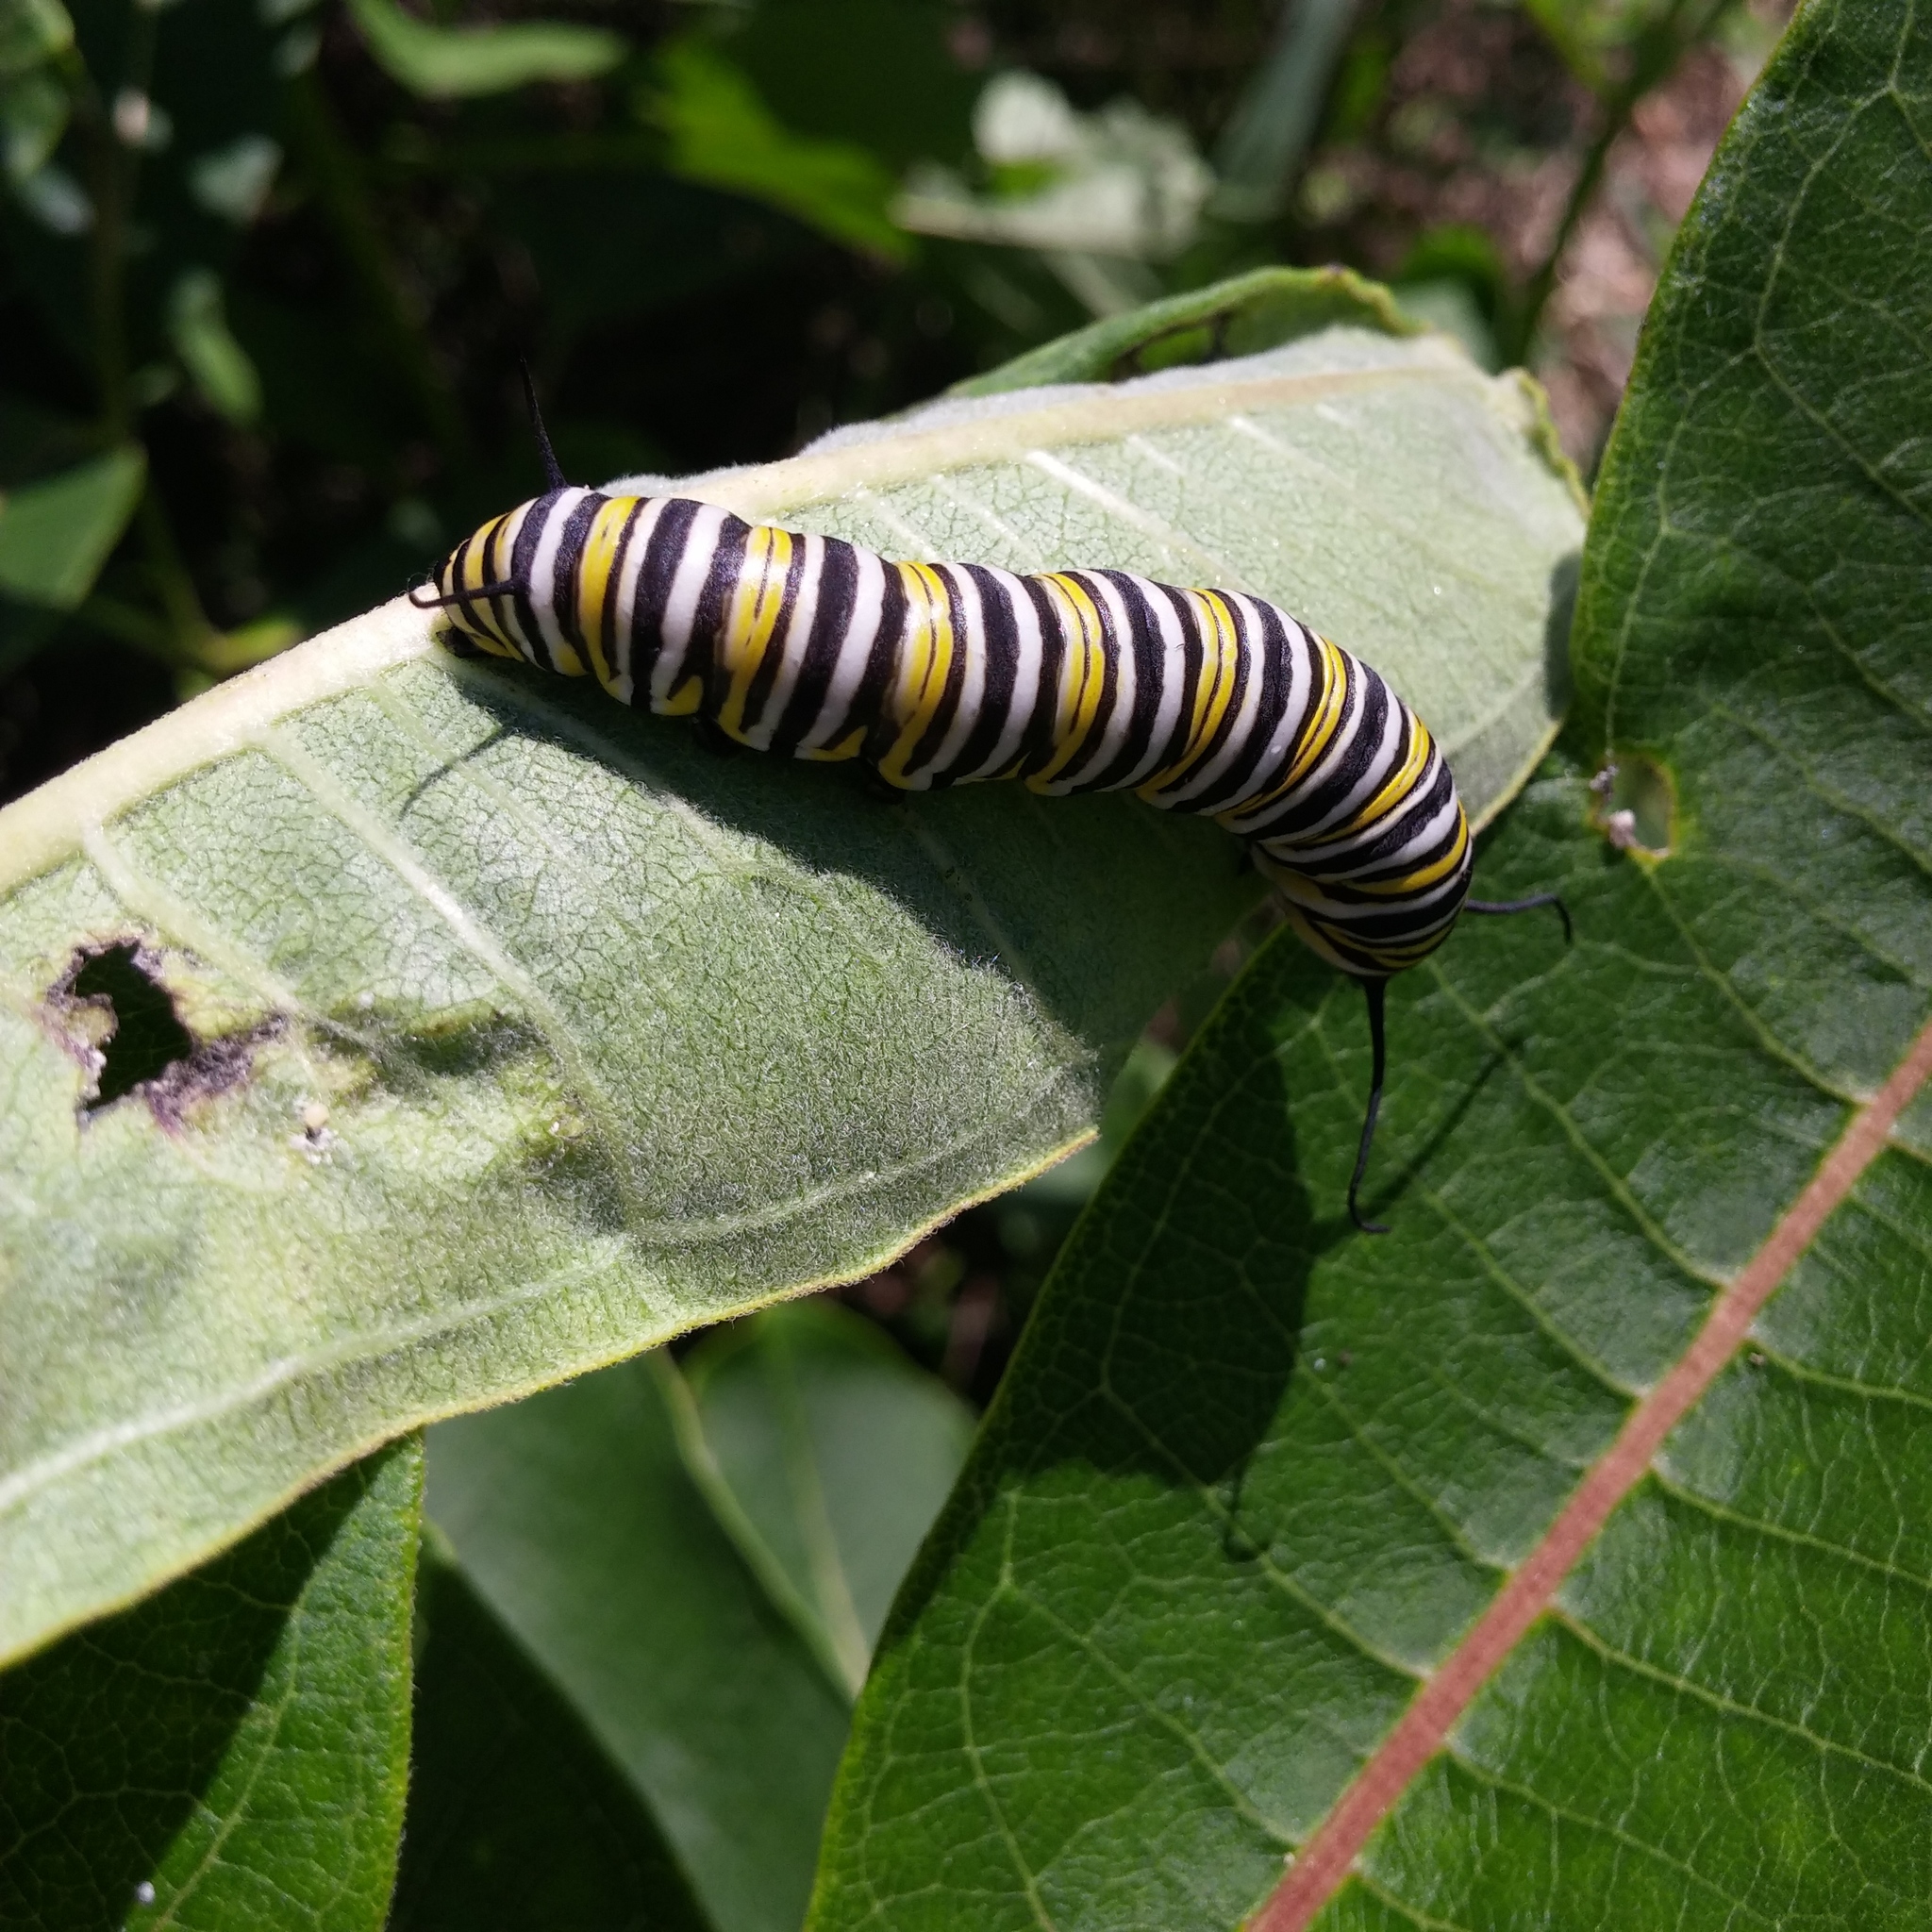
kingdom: Animalia
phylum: Arthropoda
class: Insecta
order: Lepidoptera
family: Nymphalidae
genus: Danaus
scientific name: Danaus plexippus
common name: Monarch
